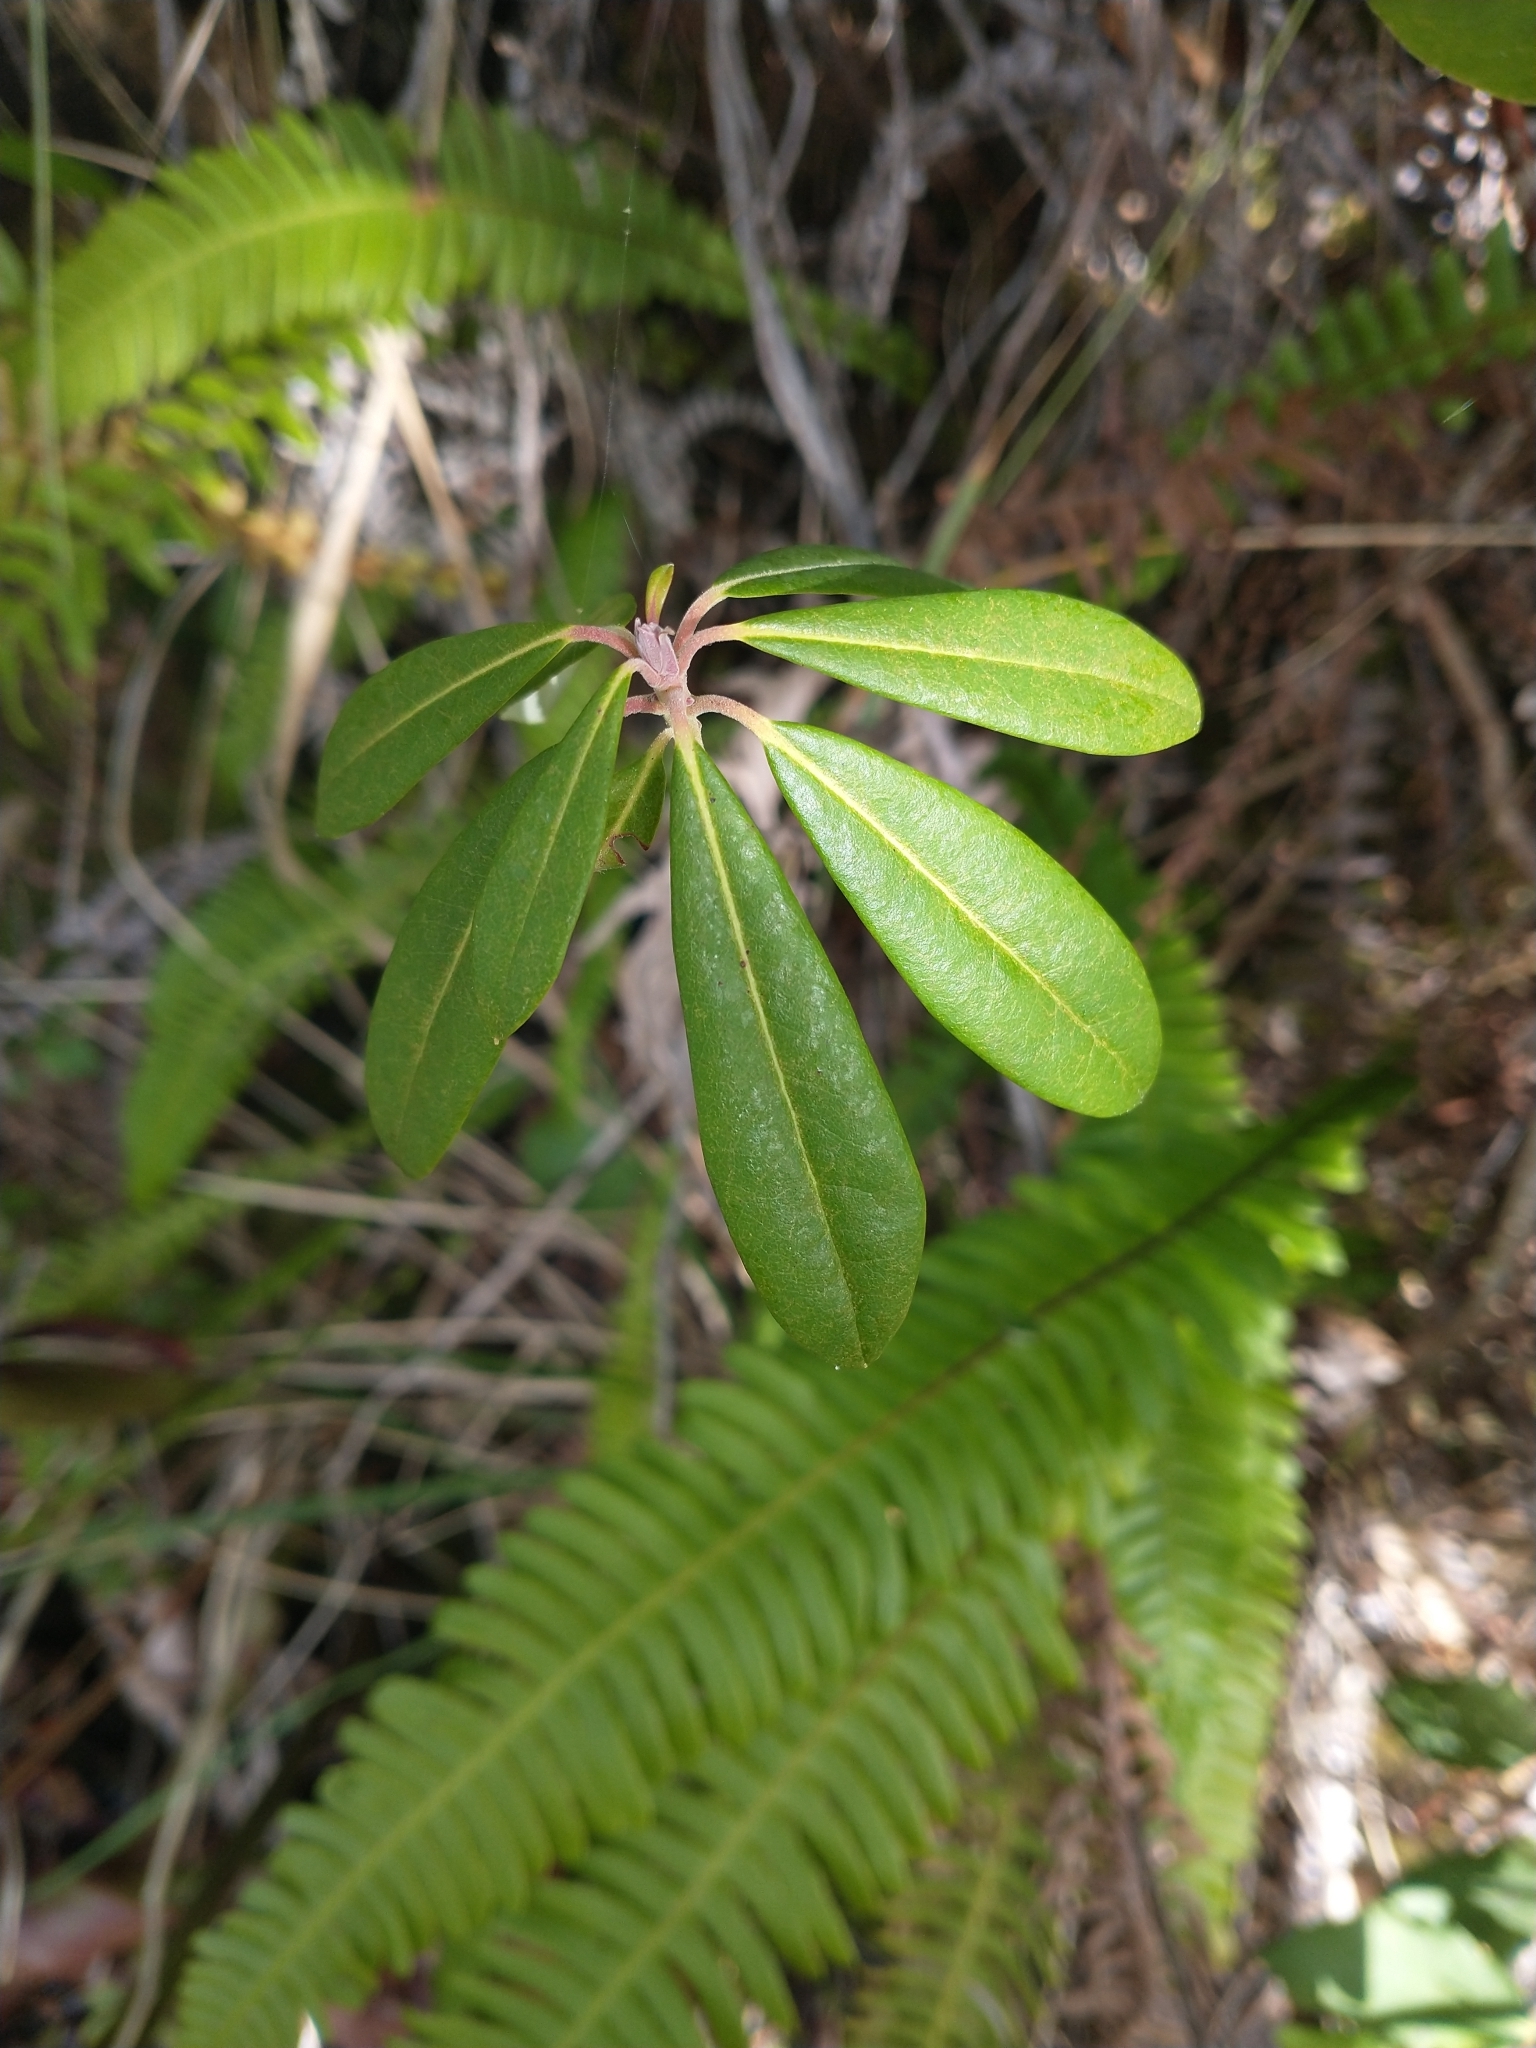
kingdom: Plantae
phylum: Tracheophyta
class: Magnoliopsida
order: Ericales
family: Ericaceae
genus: Rhododendron
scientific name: Rhododendron columbianum
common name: Western labrador tea
